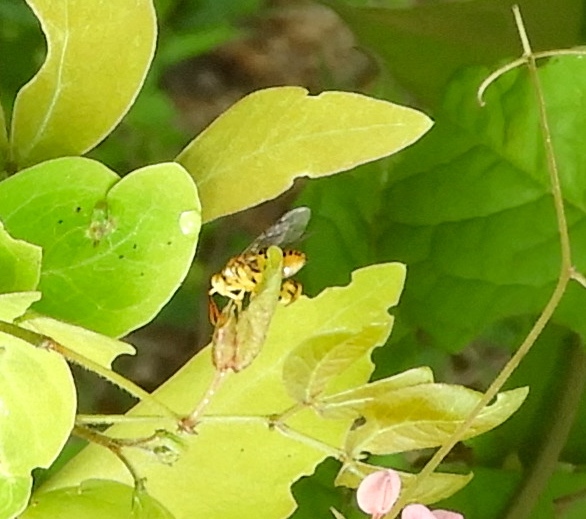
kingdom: Animalia
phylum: Arthropoda
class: Insecta
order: Hymenoptera
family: Chalcididae
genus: Conura
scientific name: Conura
